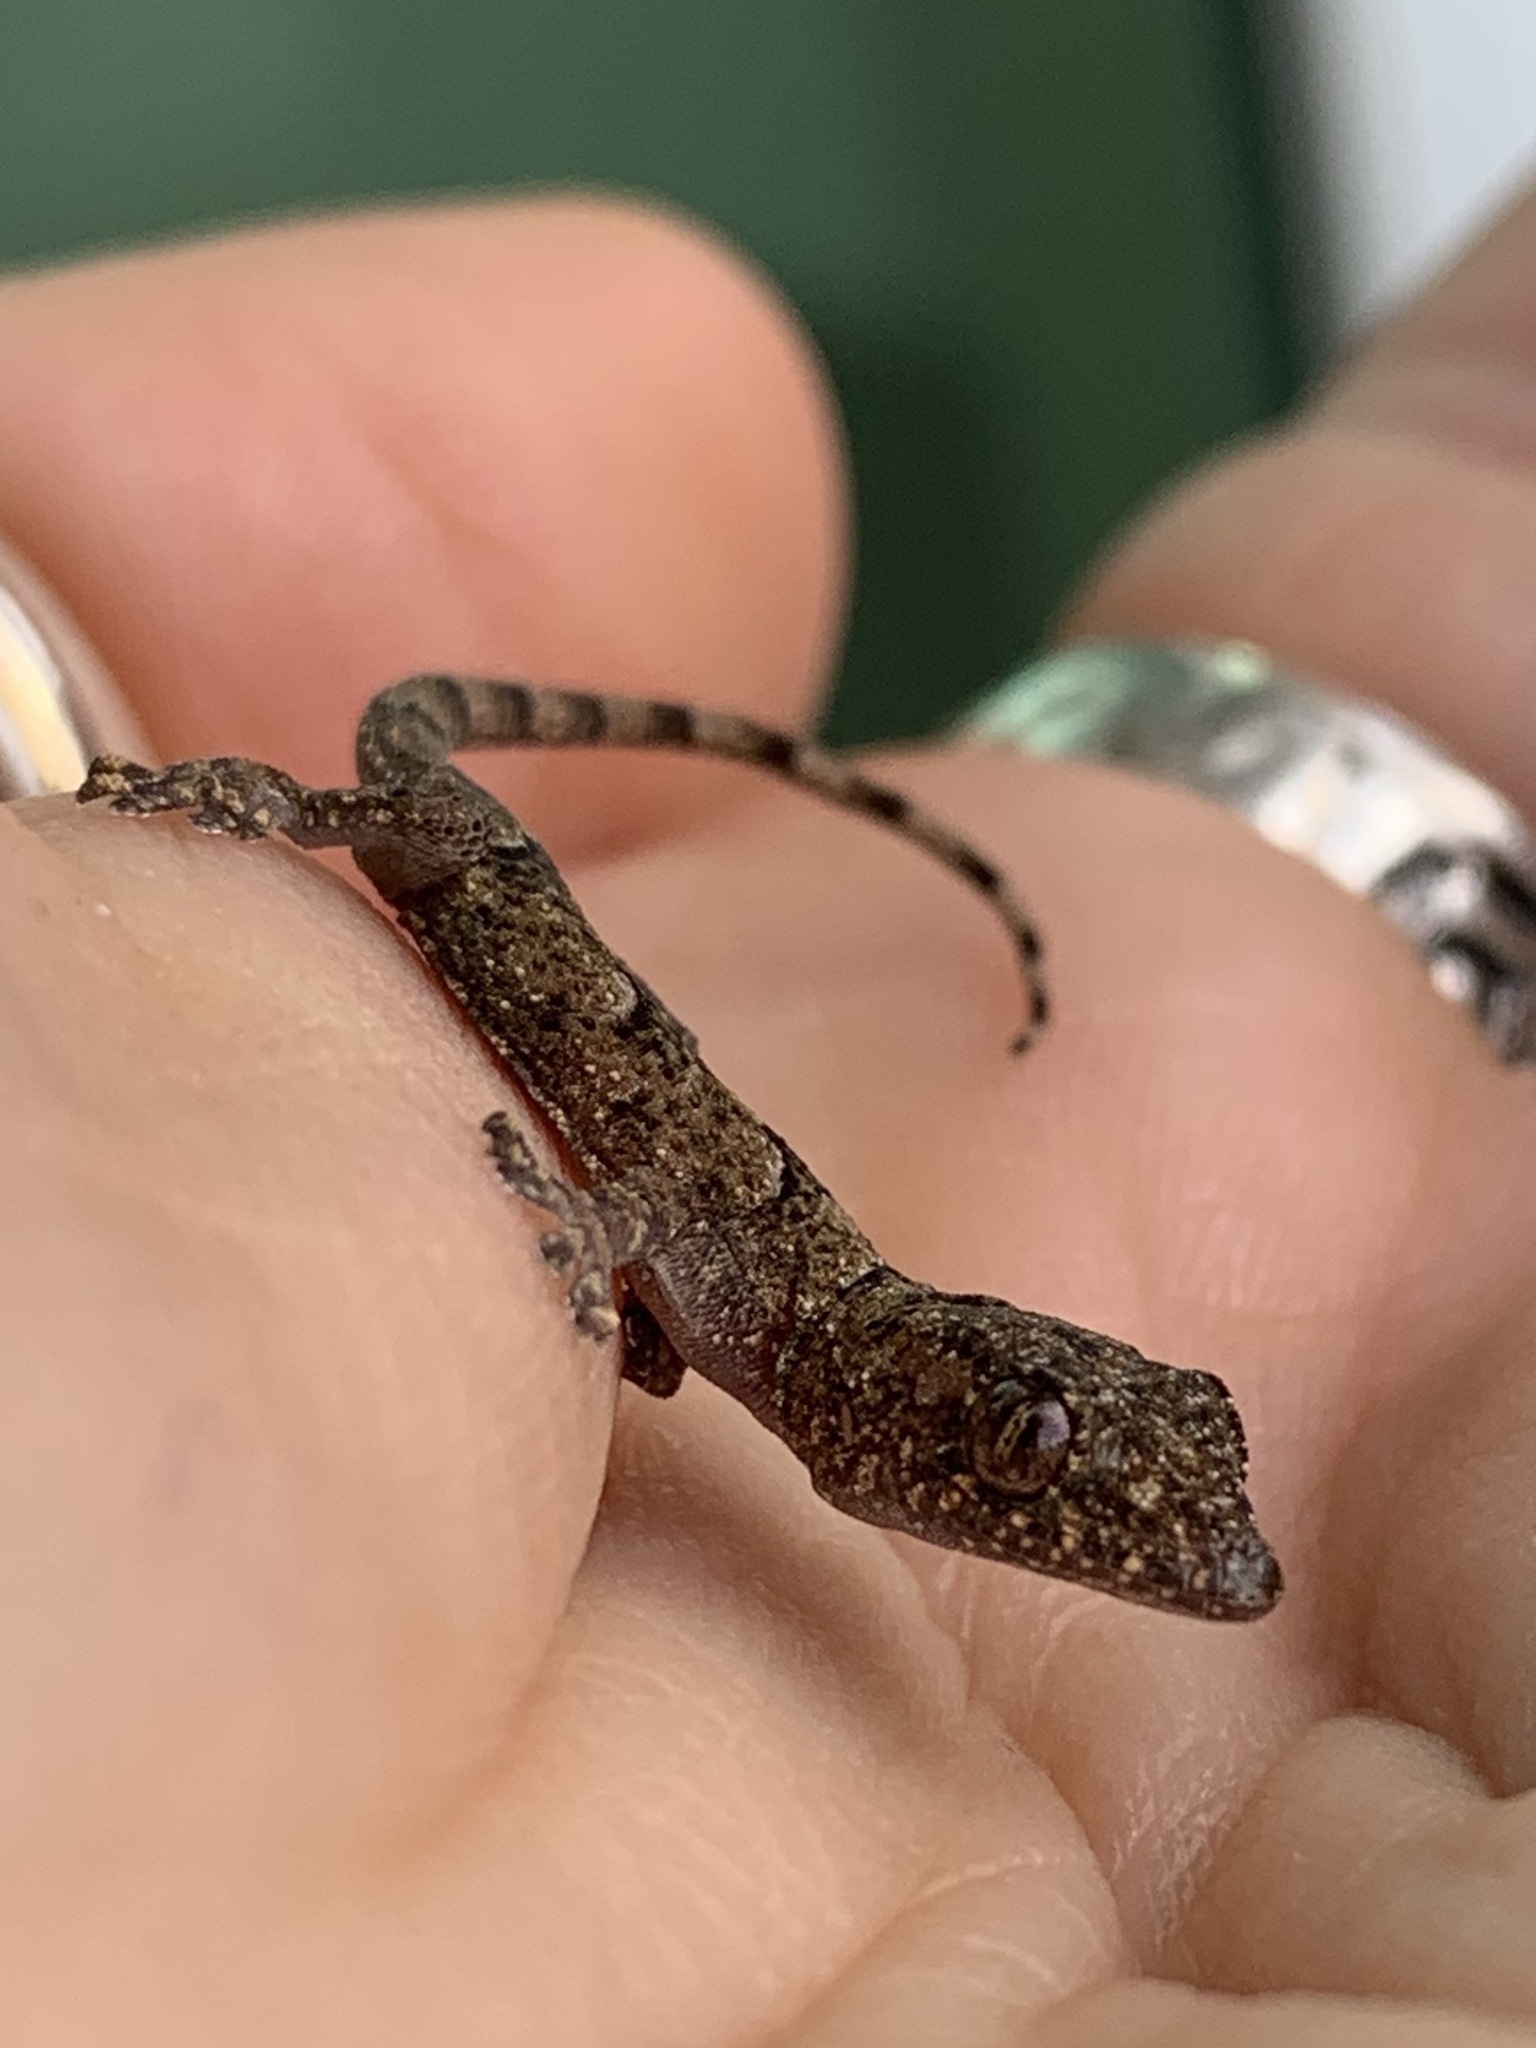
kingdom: Animalia
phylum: Chordata
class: Squamata
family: Gekkonidae
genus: Hemidactylus
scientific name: Hemidactylus mabouia
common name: House gecko
